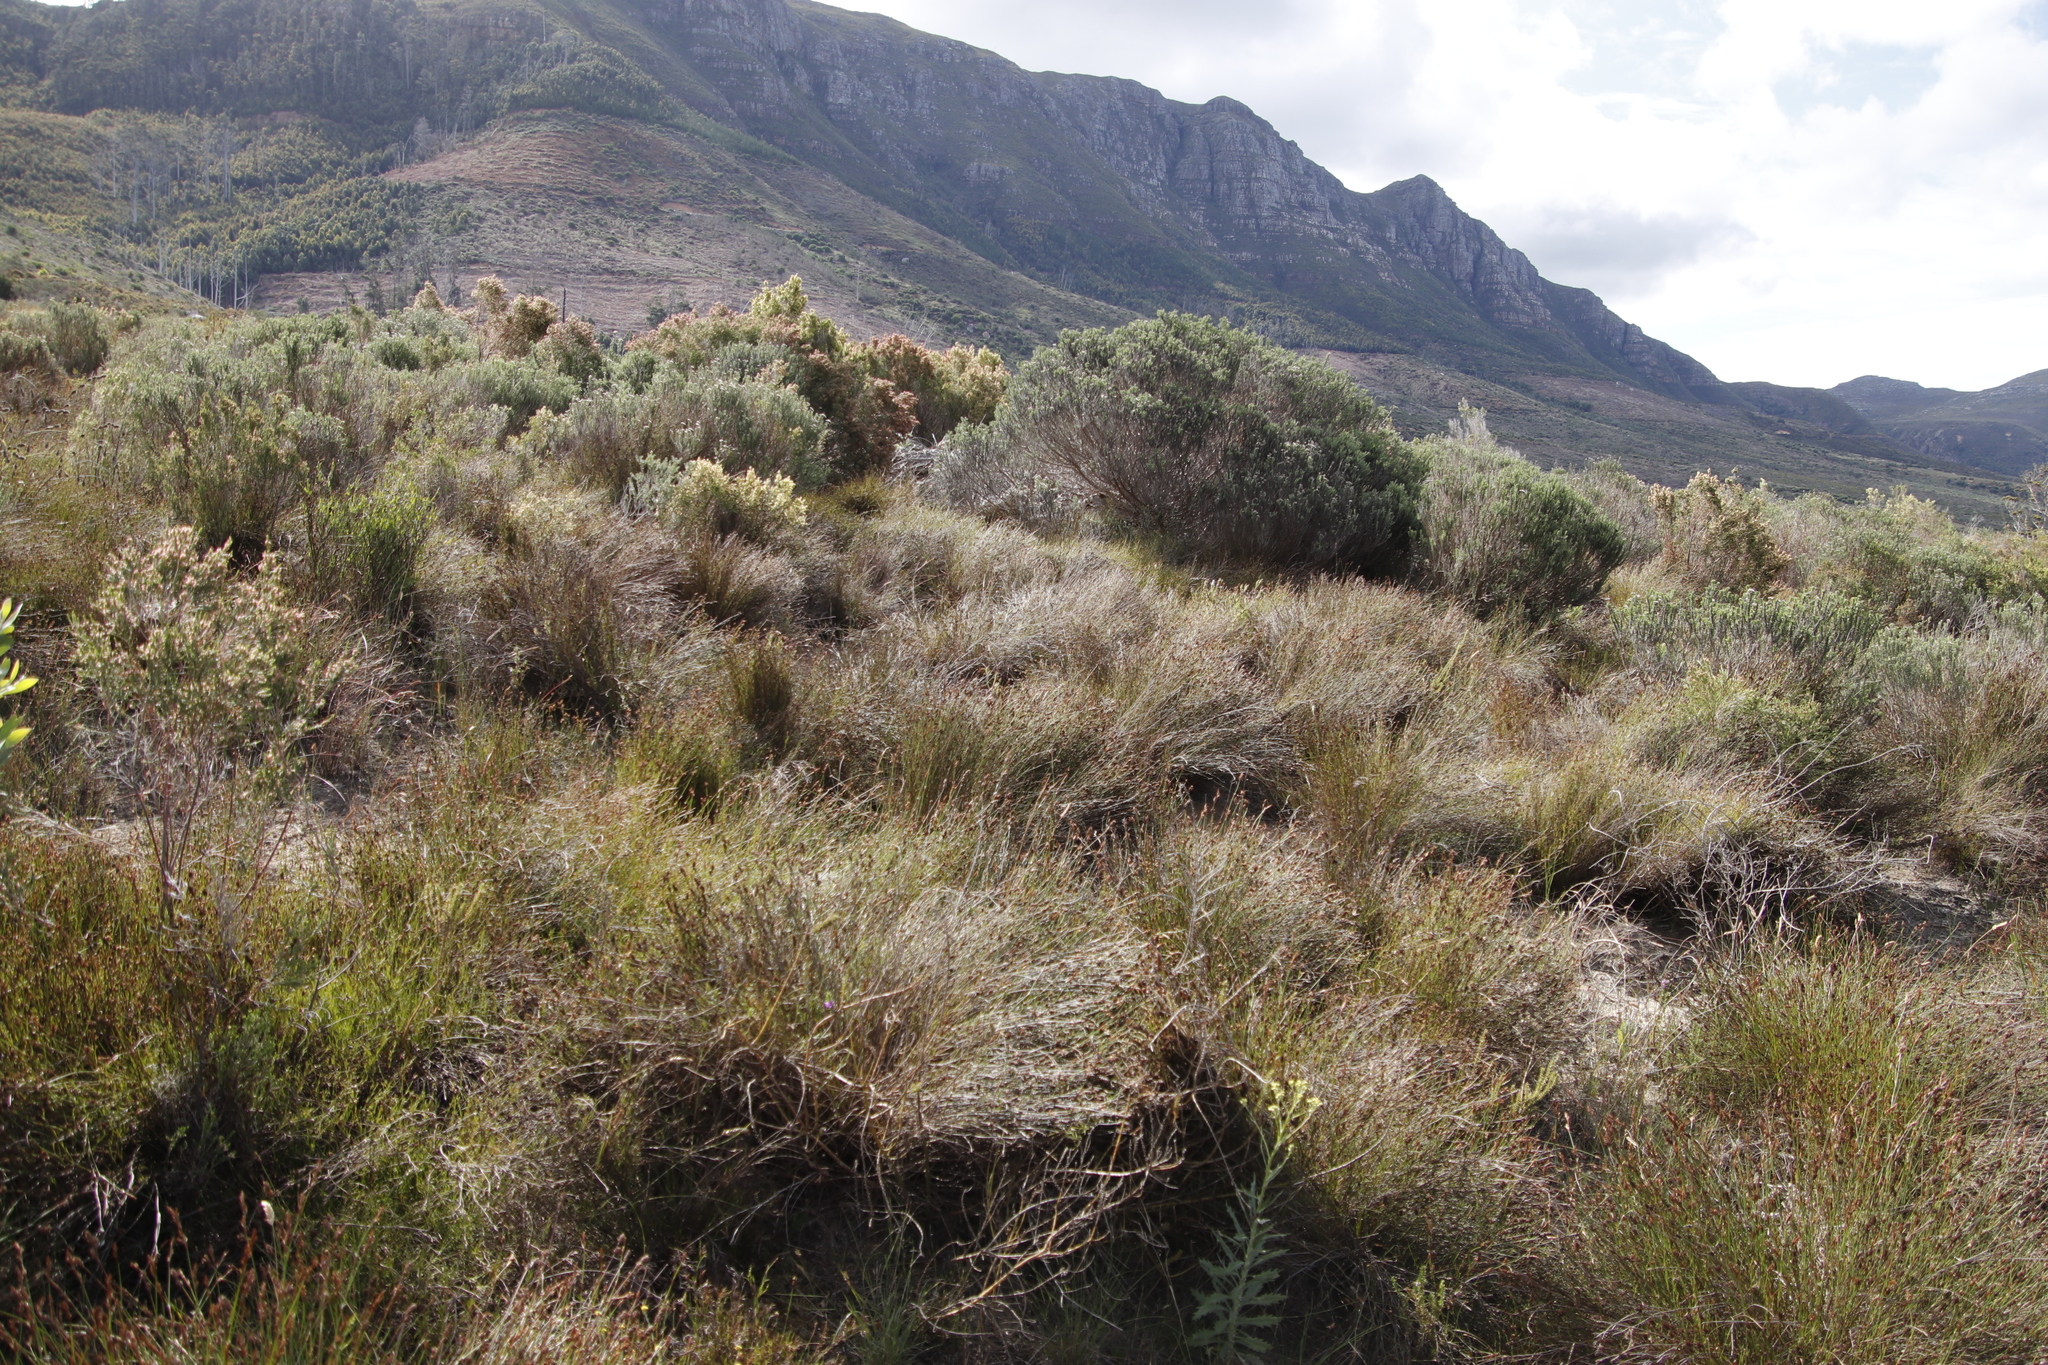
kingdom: Plantae
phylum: Tracheophyta
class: Liliopsida
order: Poales
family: Restionaceae
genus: Restio
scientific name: Restio capensis
